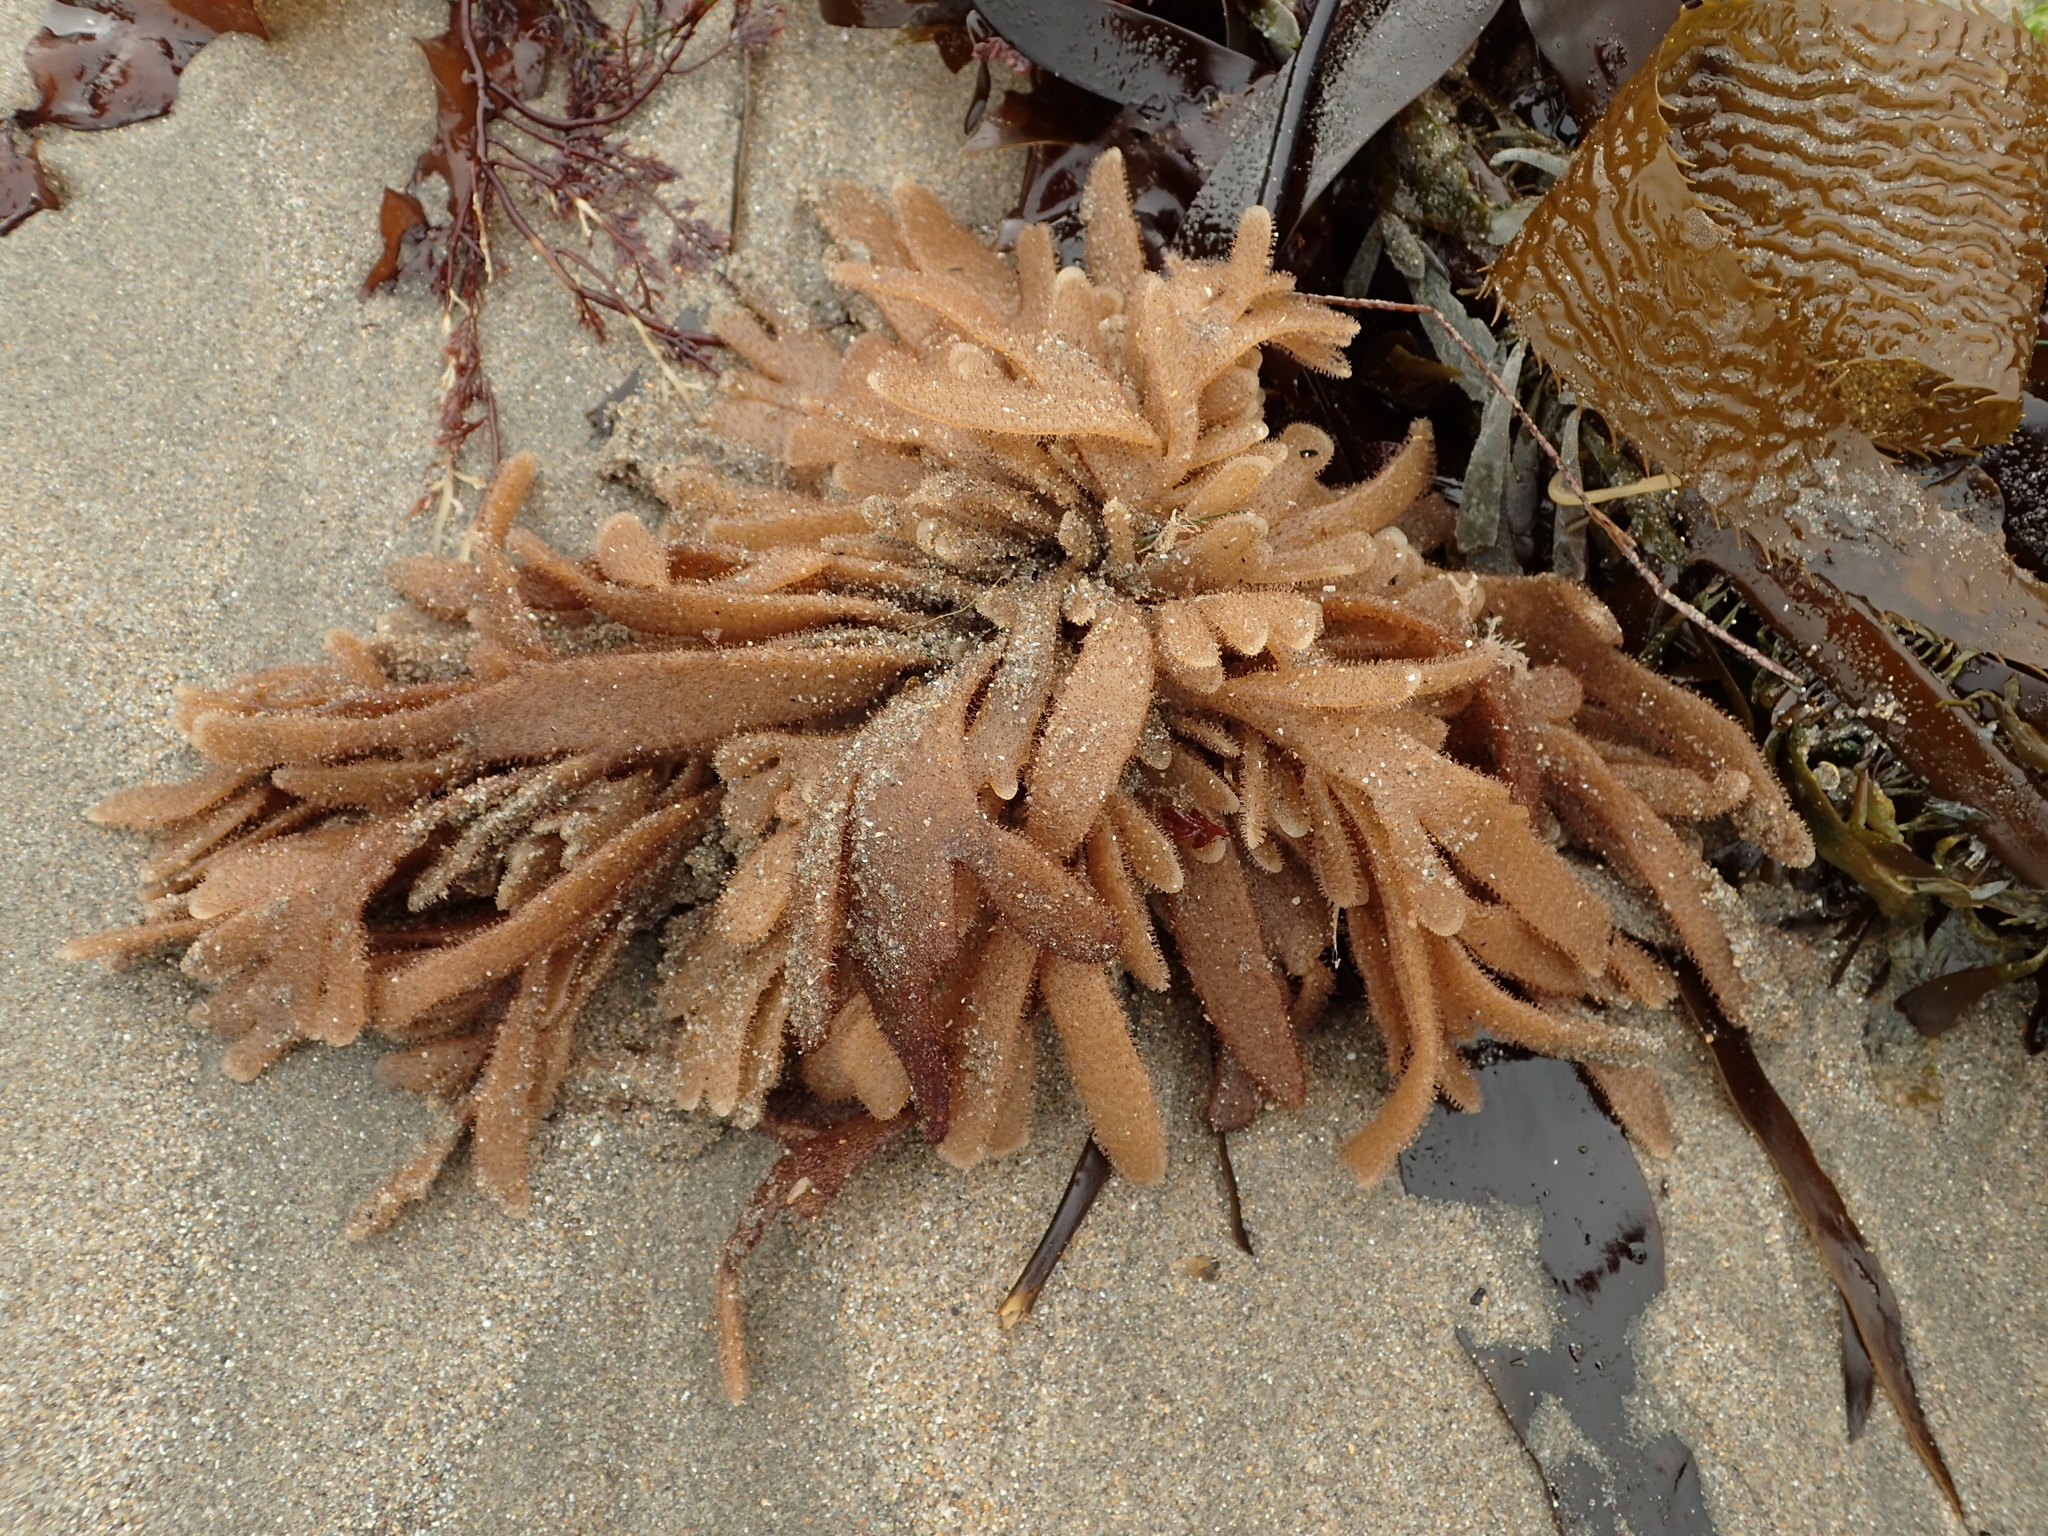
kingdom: Animalia
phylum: Bryozoa
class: Gymnolaemata
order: Ctenostomatida
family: Flustrellidridae
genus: Flustrellidra
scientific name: Flustrellidra corniculata
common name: Spiny leather bryozoan
